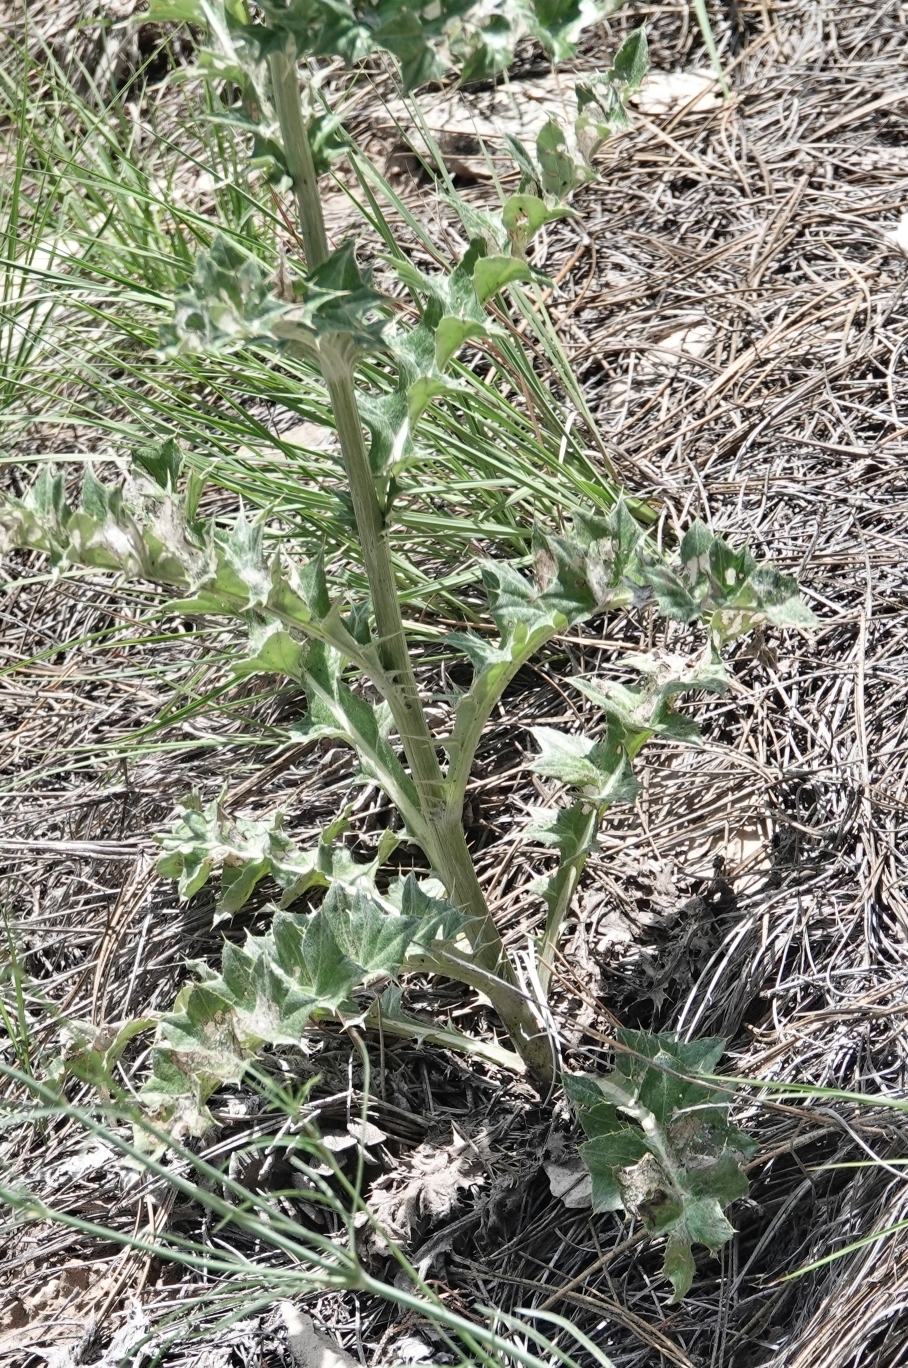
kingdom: Plantae
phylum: Tracheophyta
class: Magnoliopsida
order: Asterales
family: Asteraceae
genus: Cirsium
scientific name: Cirsium undulatum
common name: Pasture thistle
